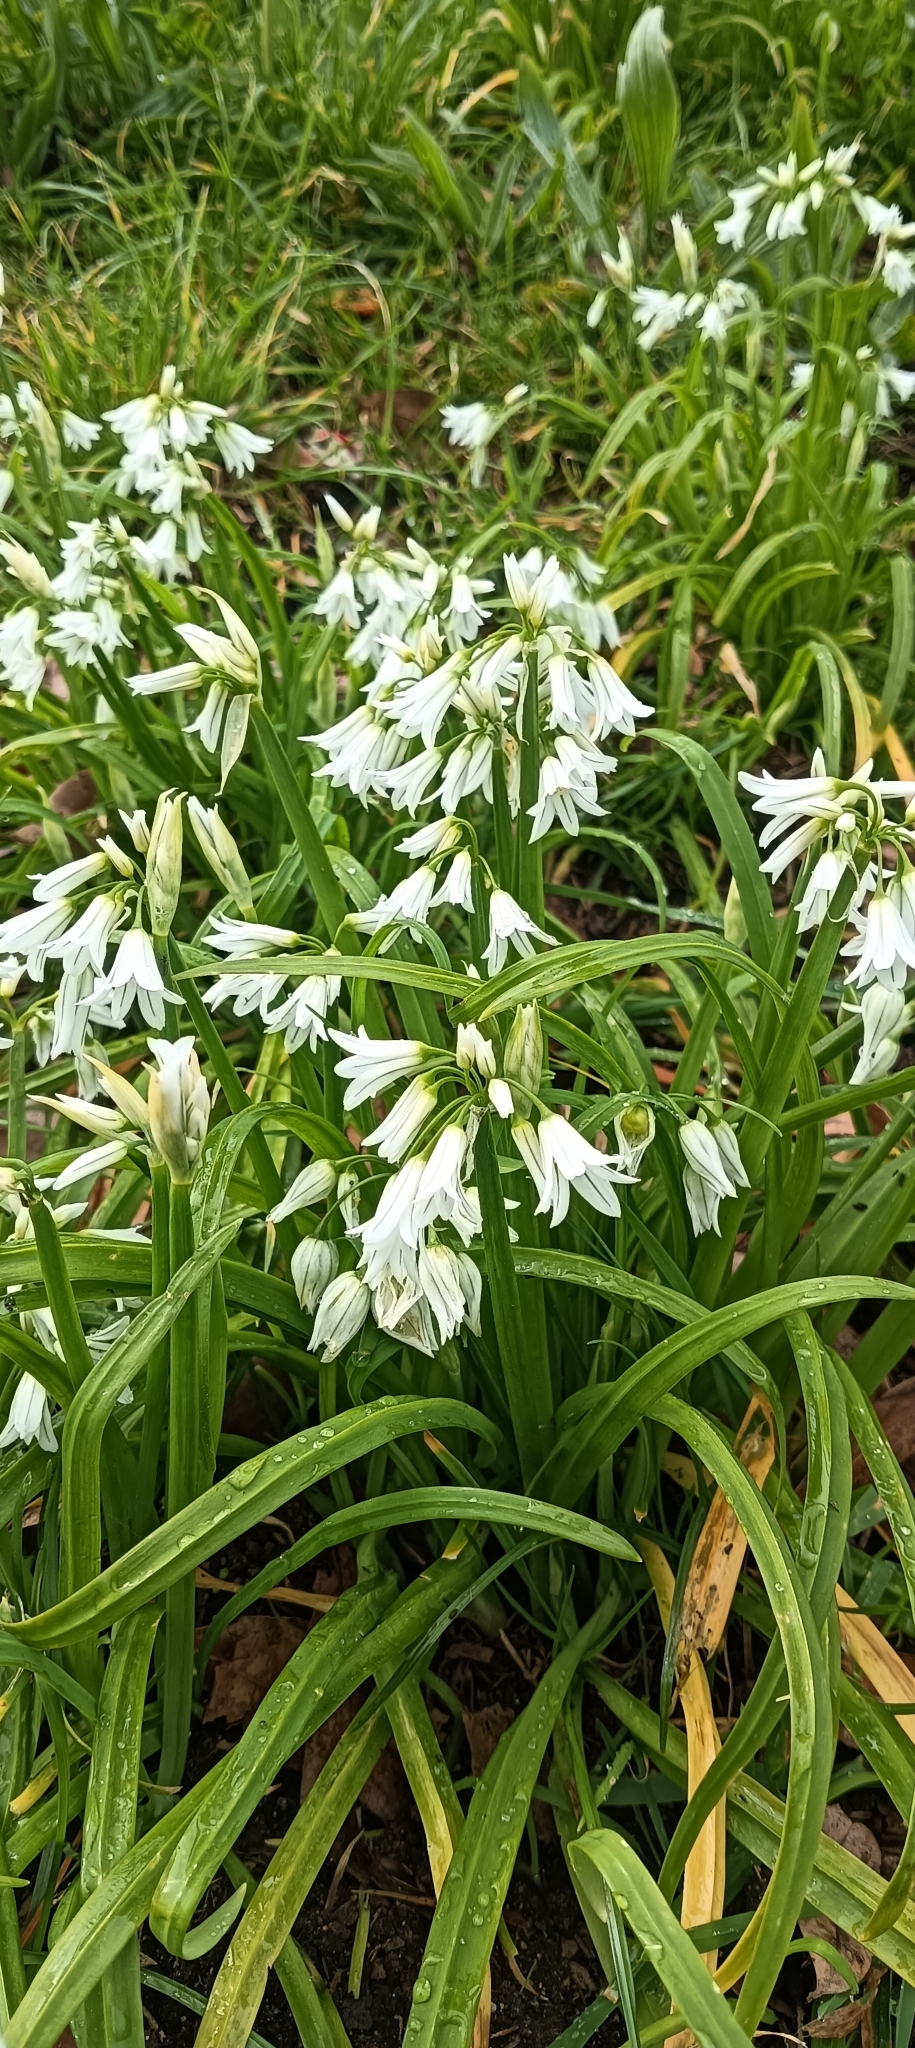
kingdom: Plantae
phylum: Tracheophyta
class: Liliopsida
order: Asparagales
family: Amaryllidaceae
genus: Allium
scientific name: Allium triquetrum
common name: Three-cornered garlic
